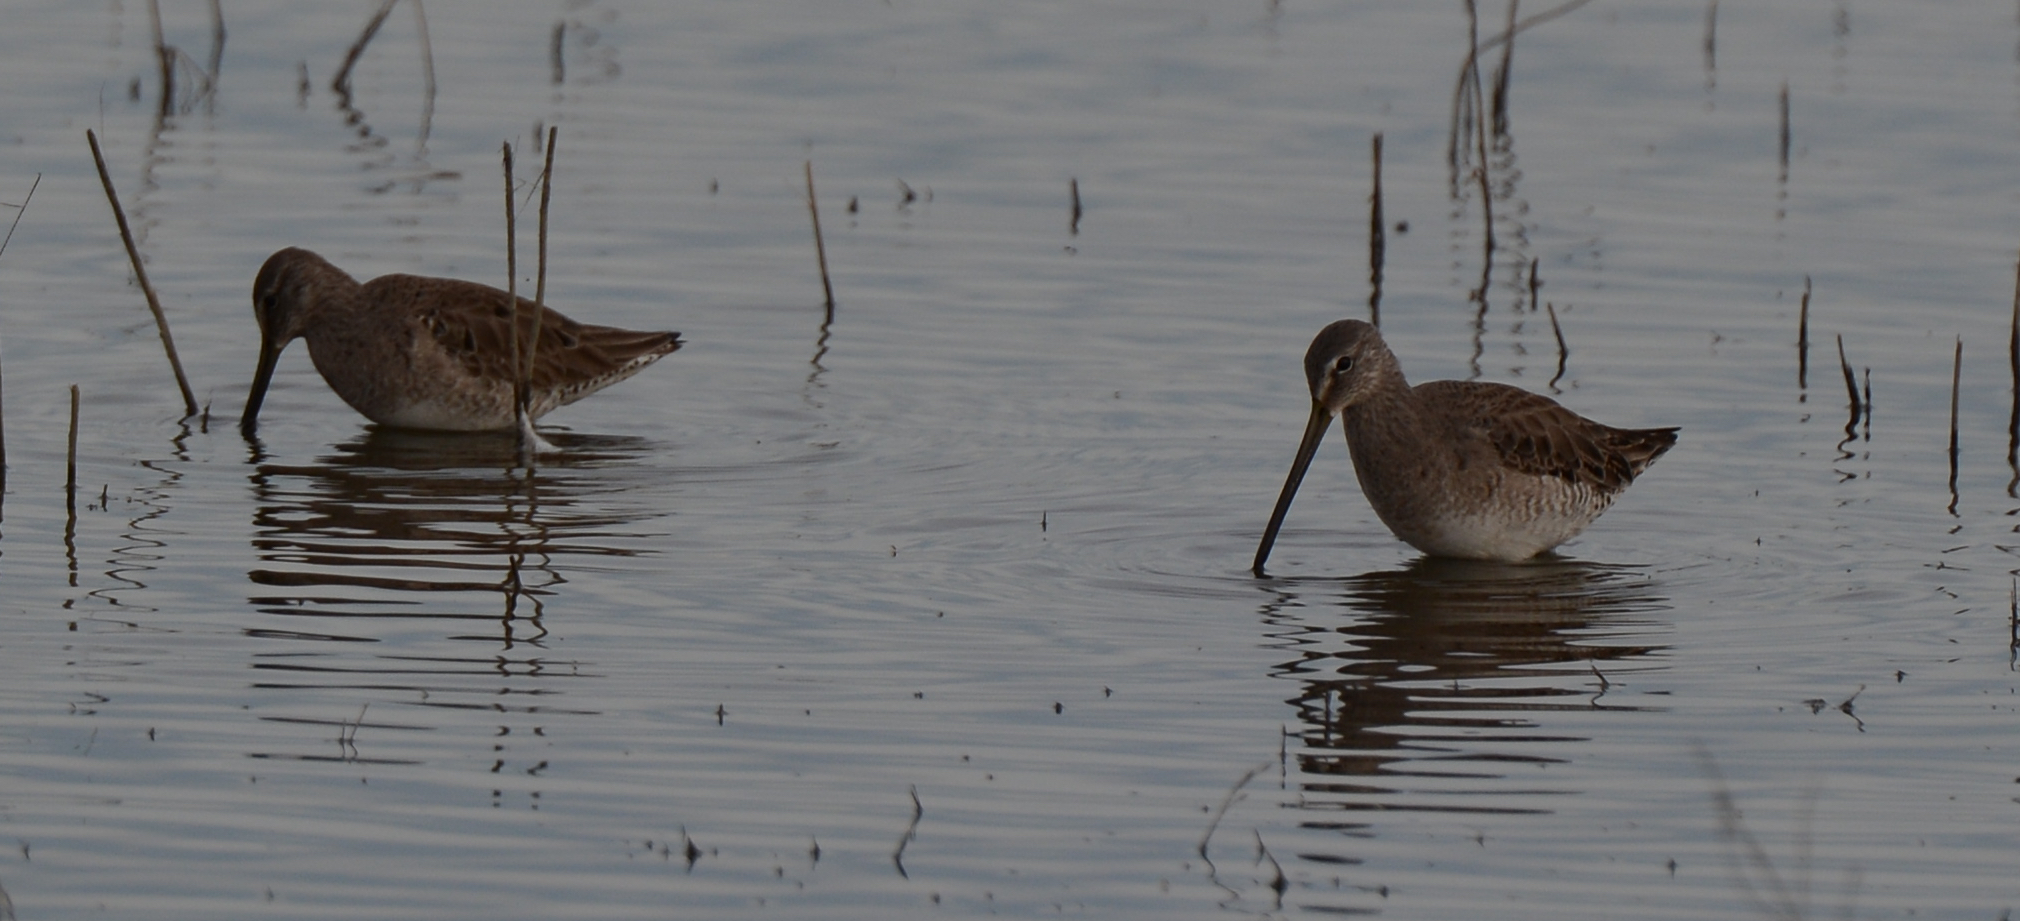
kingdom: Animalia
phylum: Chordata
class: Aves
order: Charadriiformes
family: Scolopacidae
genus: Limnodromus
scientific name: Limnodromus scolopaceus
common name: Long-billed dowitcher
